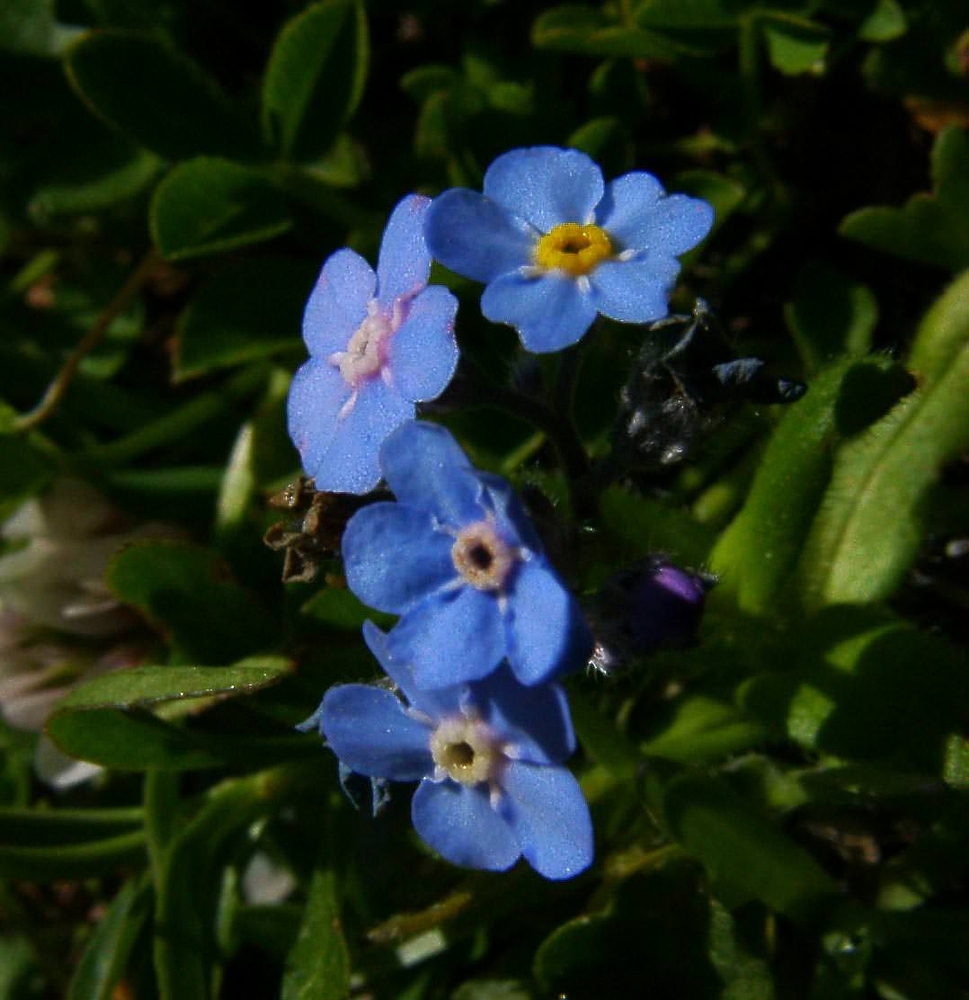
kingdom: Plantae
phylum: Tracheophyta
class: Magnoliopsida
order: Boraginales
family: Boraginaceae
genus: Myosotis
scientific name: Myosotis alpestris
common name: Alpine forget-me-not
